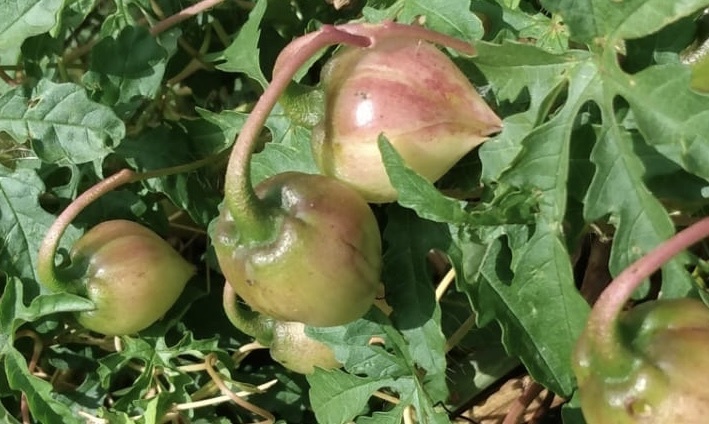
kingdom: Plantae
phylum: Tracheophyta
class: Magnoliopsida
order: Solanales
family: Convolvulaceae
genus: Distimake
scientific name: Distimake dissectus
